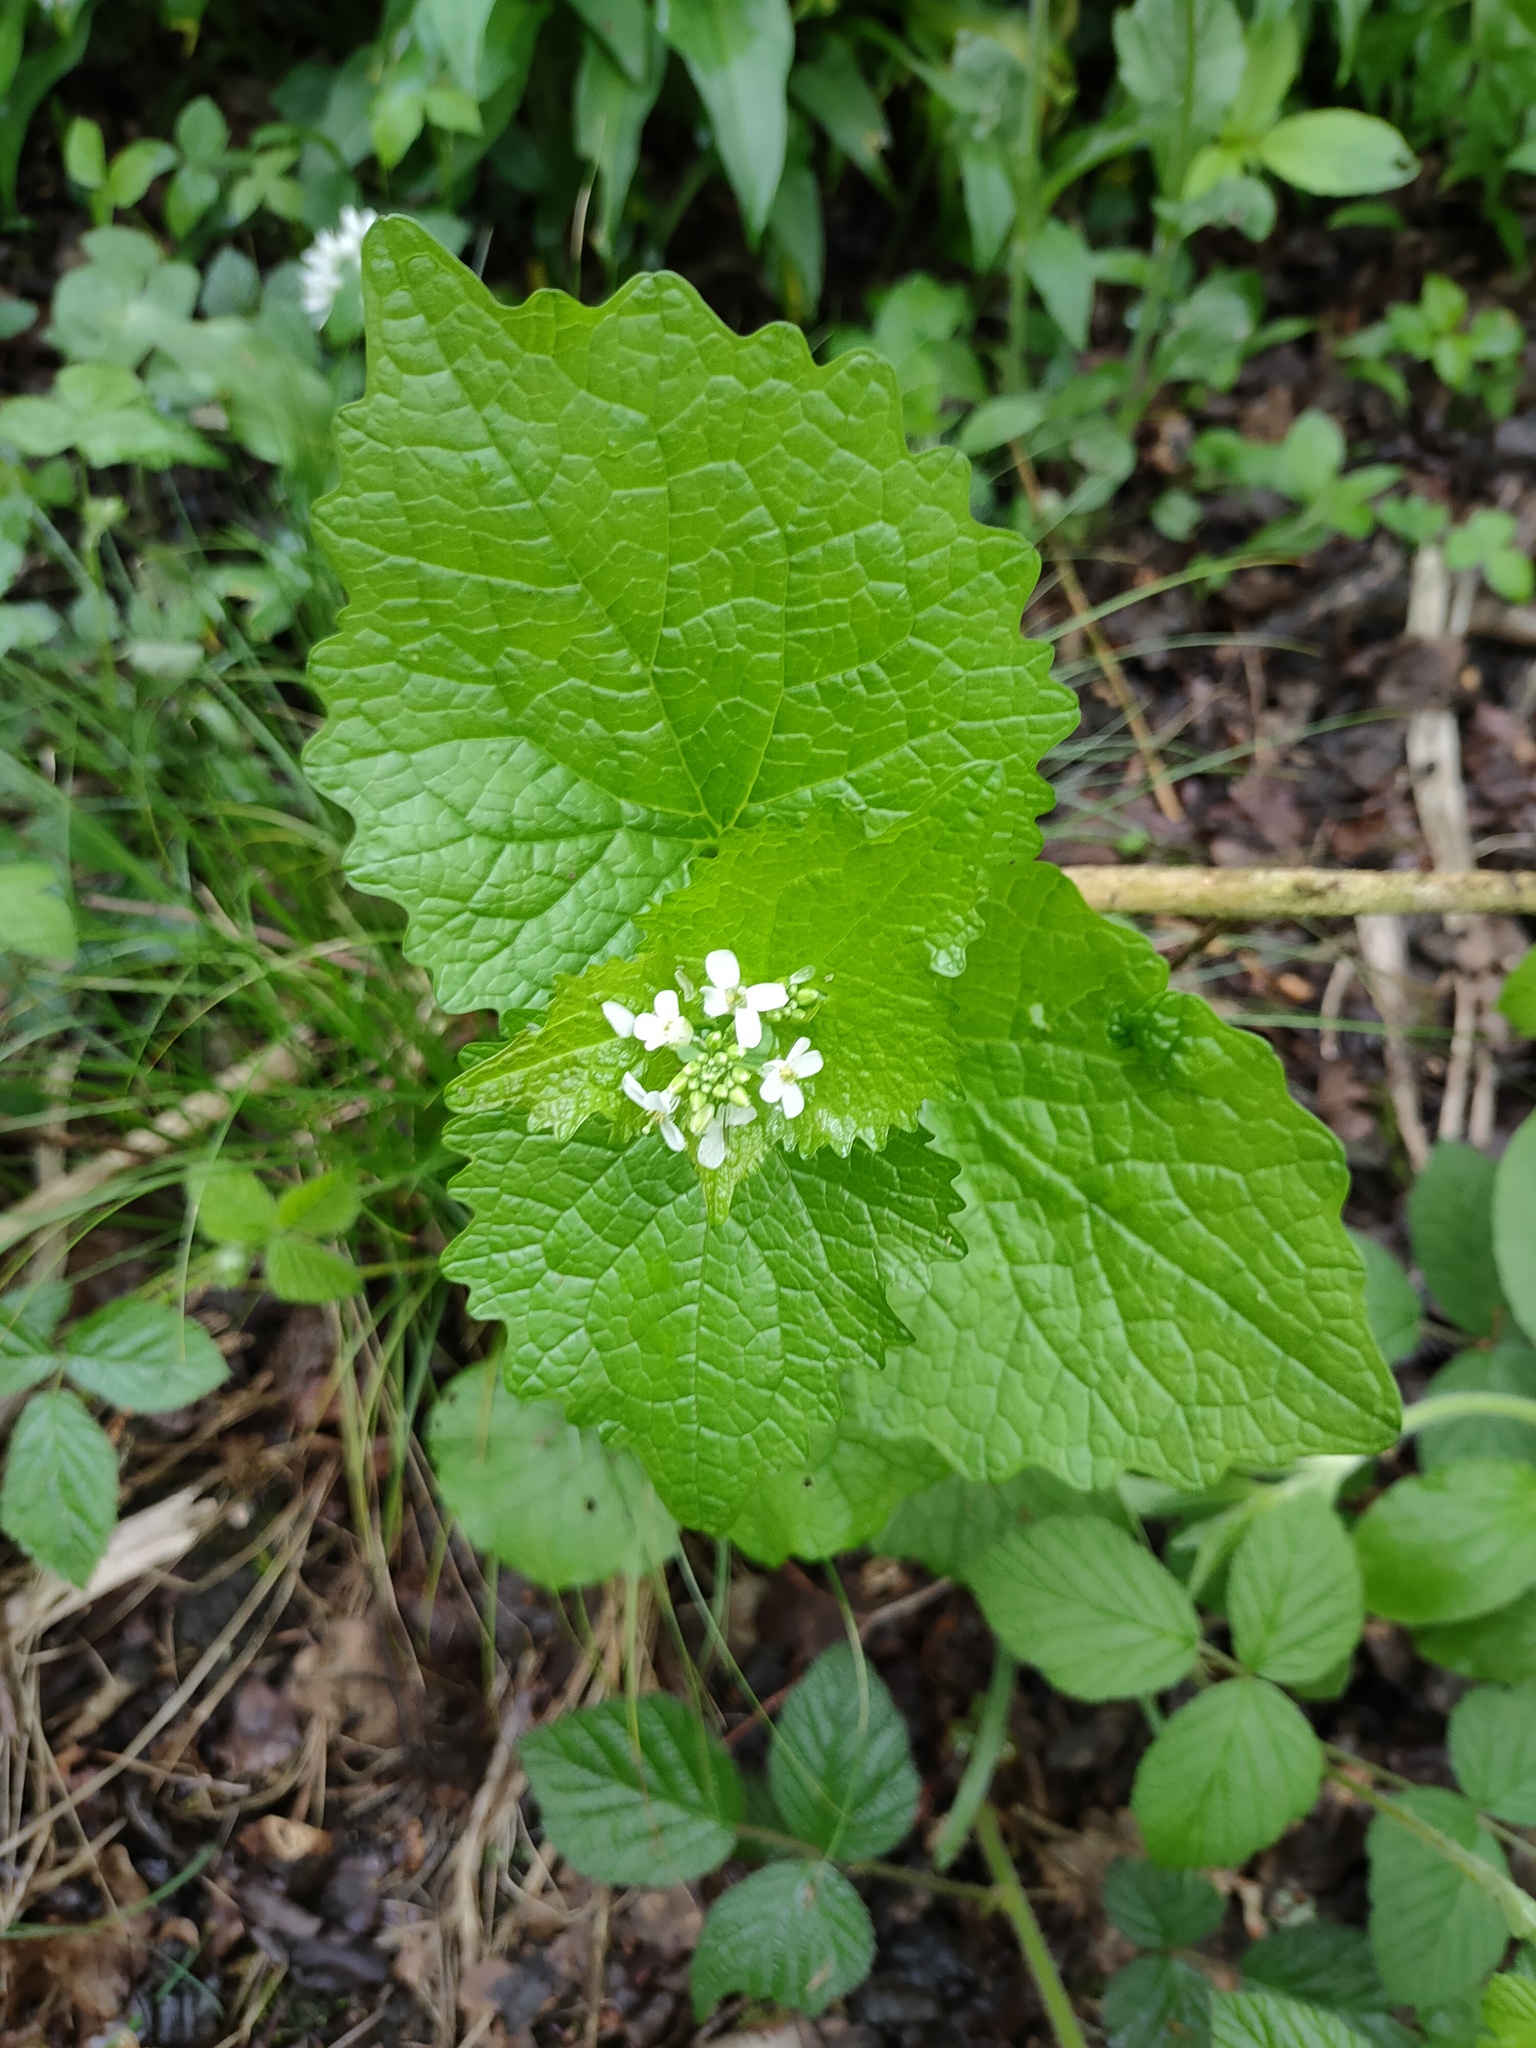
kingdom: Plantae
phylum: Tracheophyta
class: Magnoliopsida
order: Brassicales
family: Brassicaceae
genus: Alliaria
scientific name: Alliaria petiolata
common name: Garlic mustard
